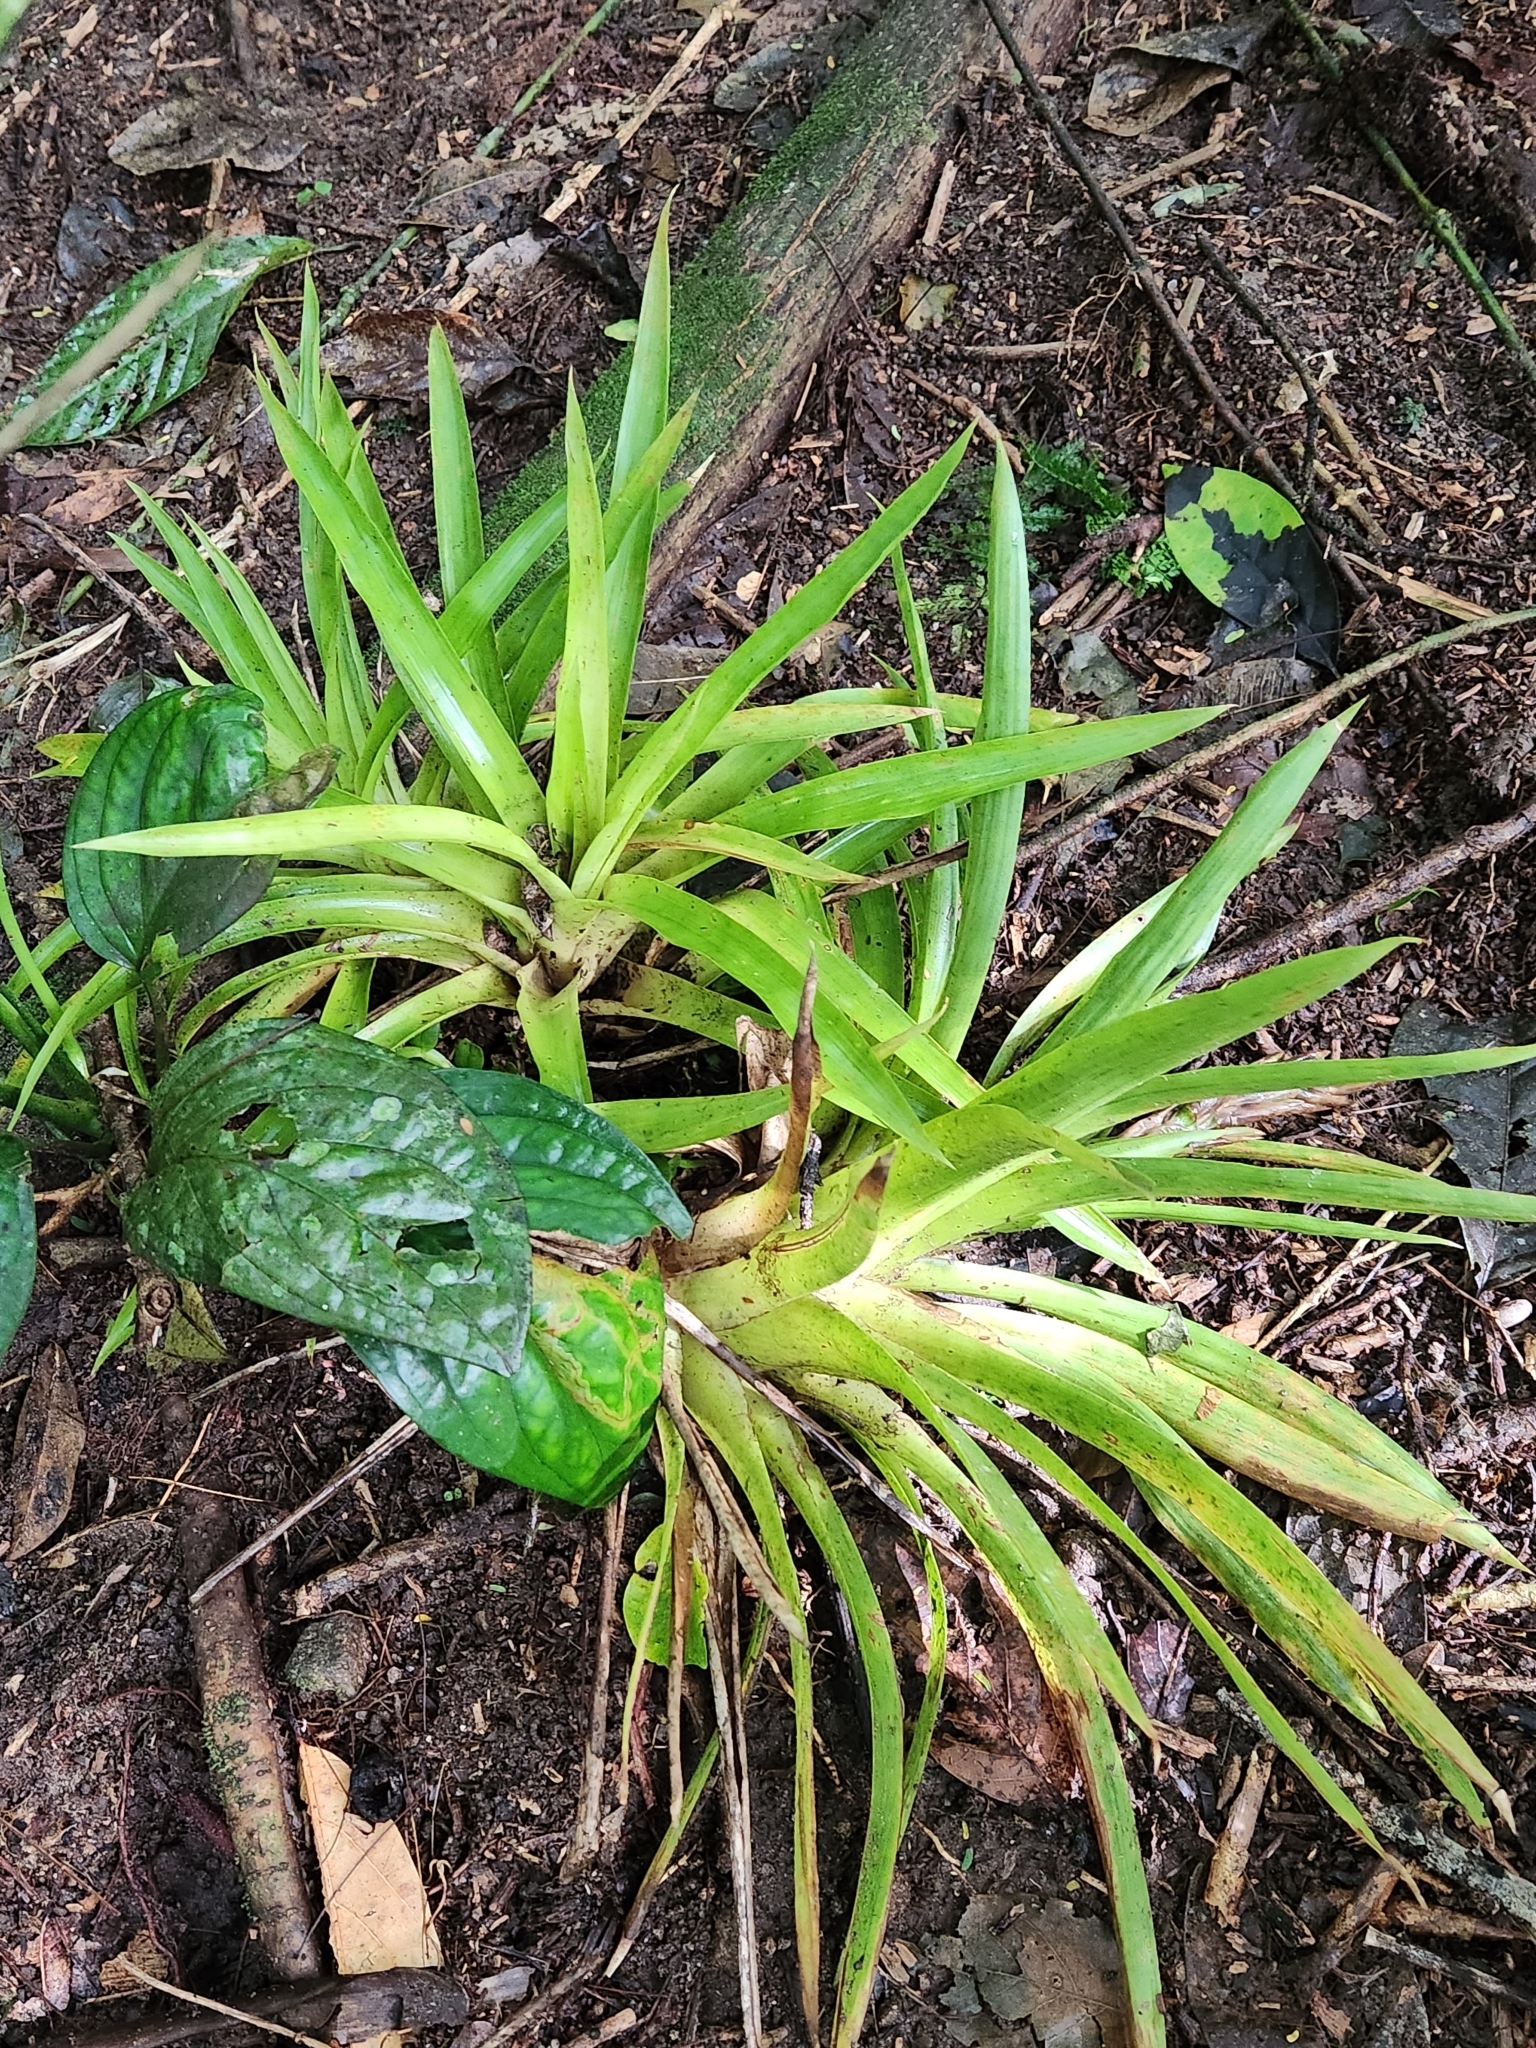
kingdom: Plantae
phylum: Tracheophyta
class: Liliopsida
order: Poales
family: Bromeliaceae
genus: Guzmania
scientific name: Guzmania monostachia
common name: West indian tufted airplant
